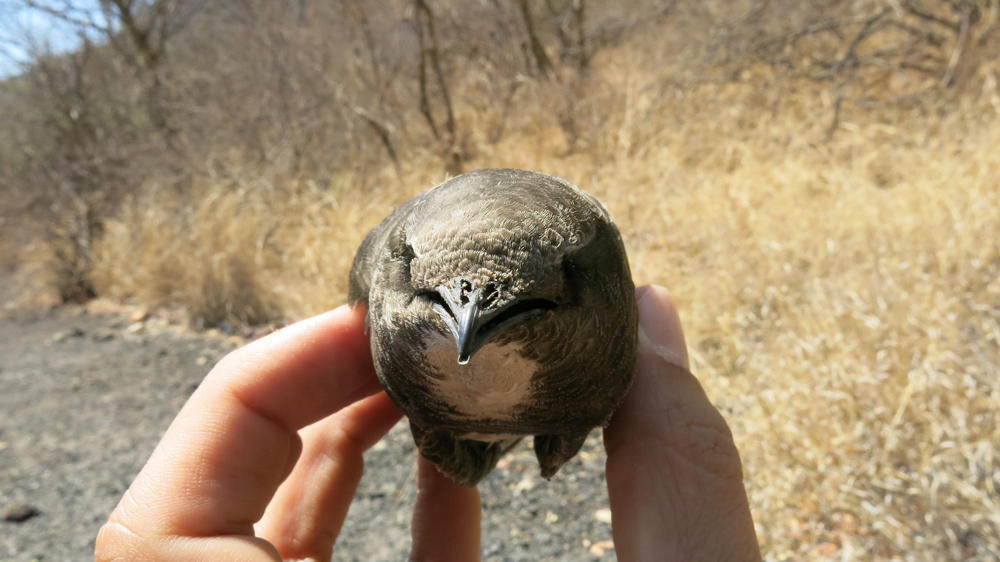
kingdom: Animalia
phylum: Chordata
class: Aves
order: Apodiformes
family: Apodidae
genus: Tachymarptis
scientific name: Tachymarptis melba
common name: Alpine swift
